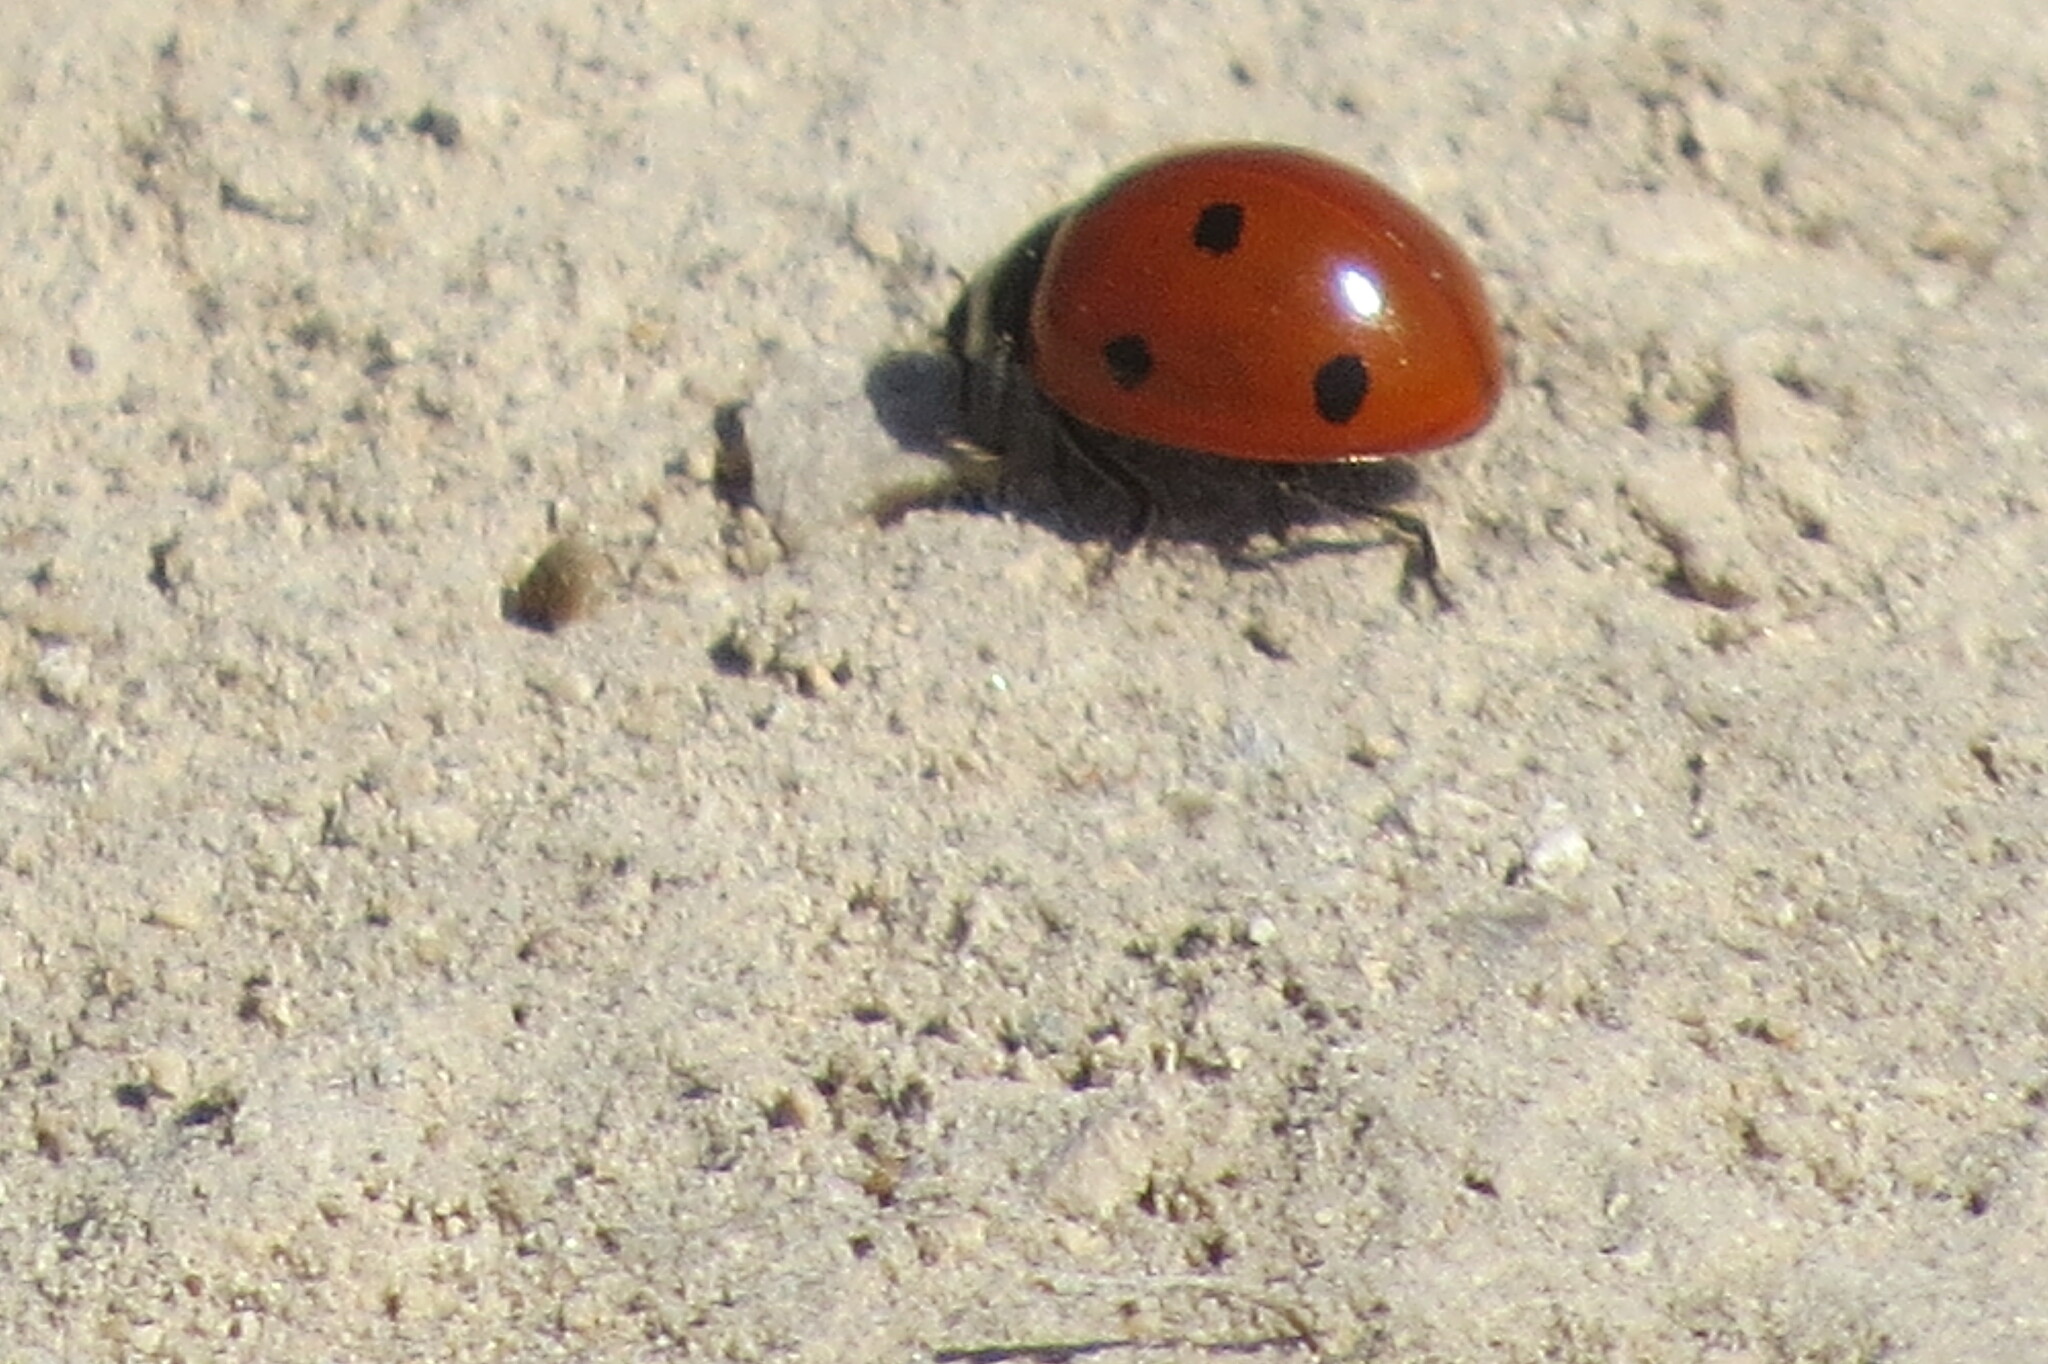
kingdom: Animalia
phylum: Arthropoda
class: Insecta
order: Coleoptera
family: Coccinellidae
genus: Coccinella
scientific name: Coccinella septempunctata
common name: Sevenspotted lady beetle
